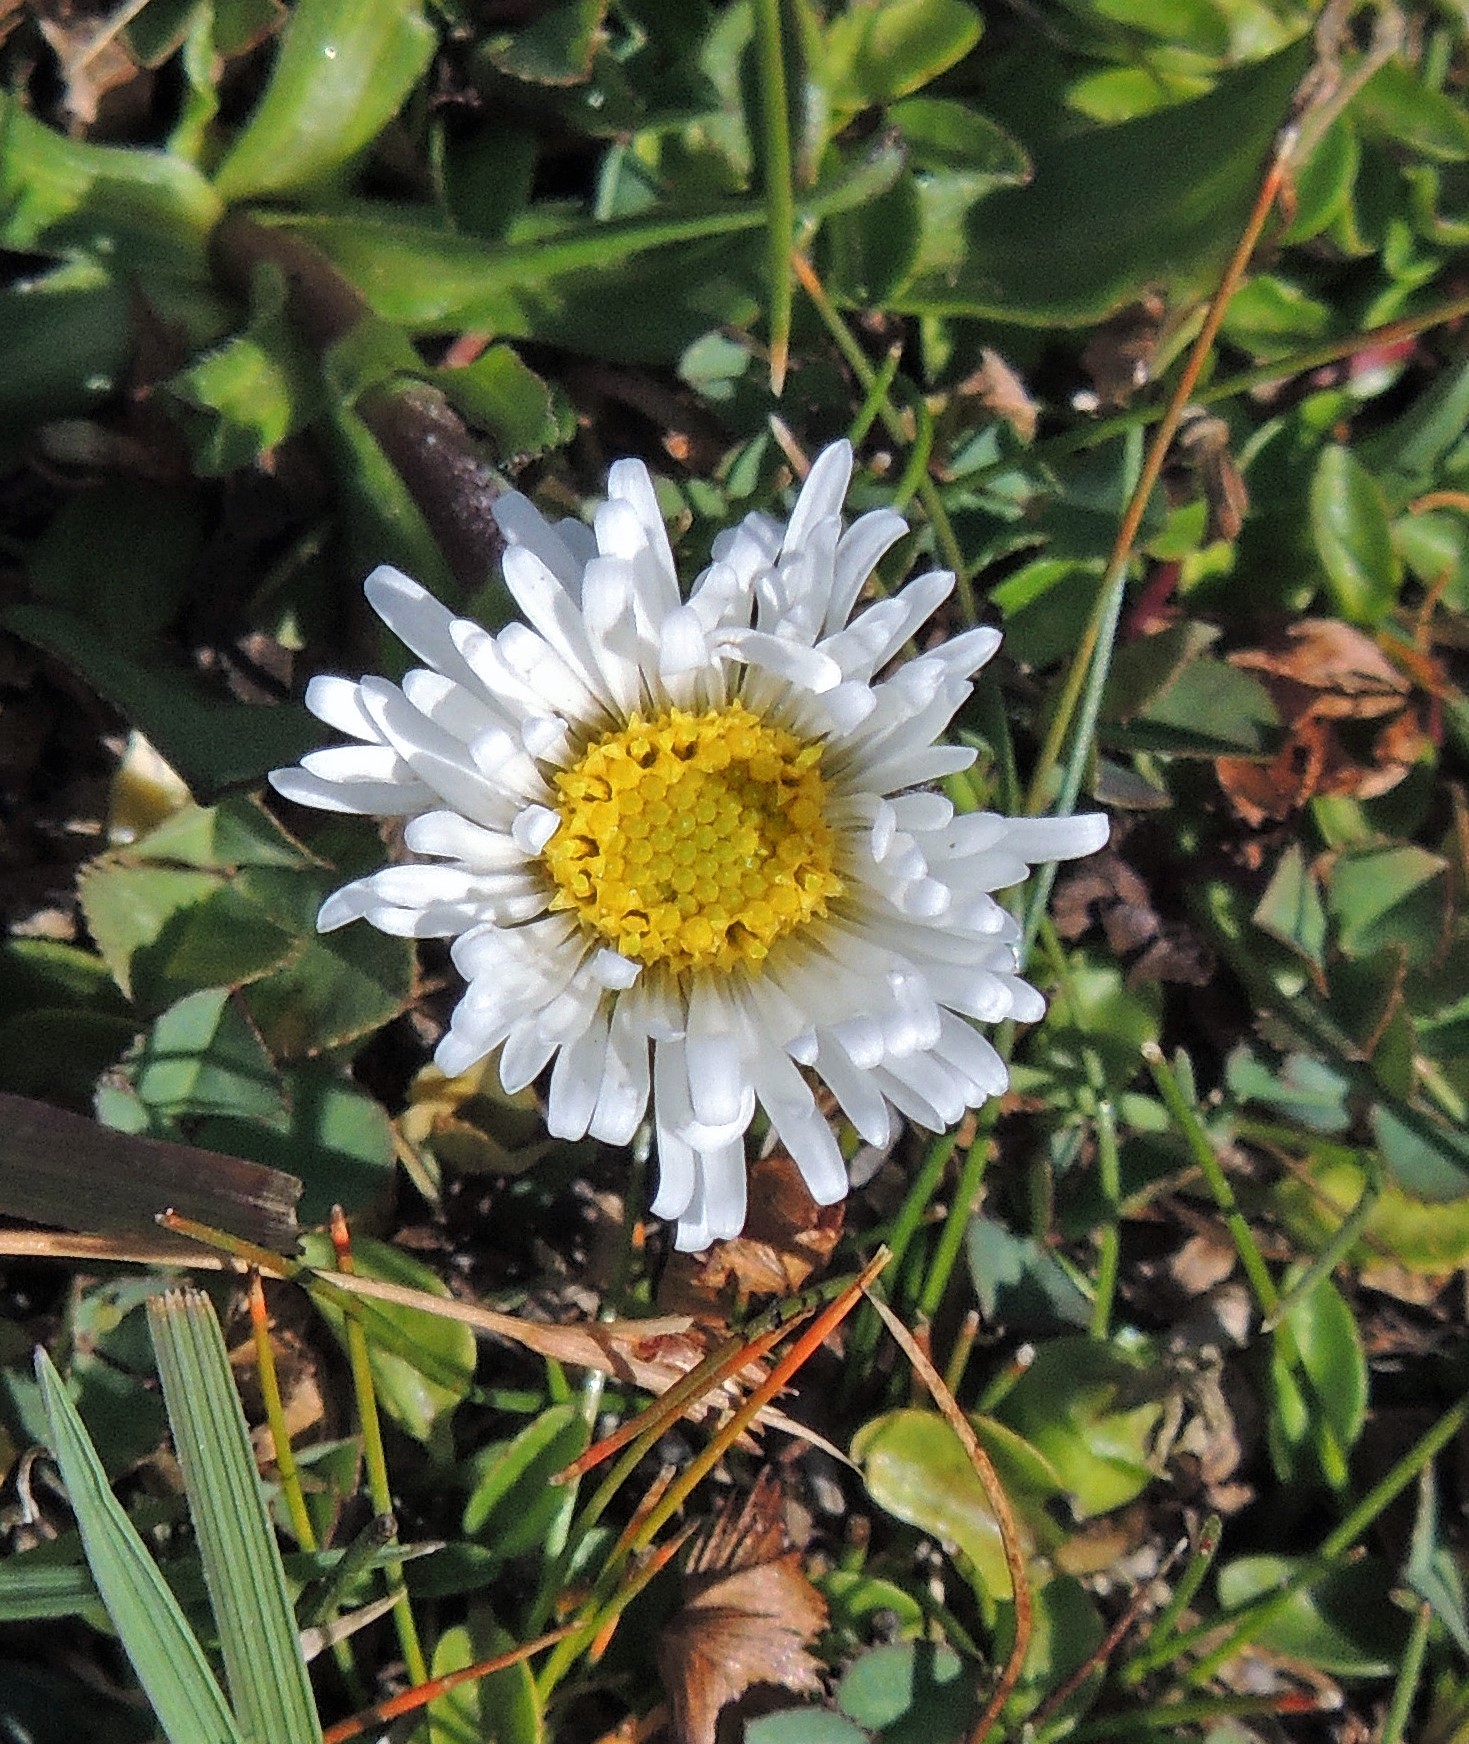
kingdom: Plantae
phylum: Tracheophyta
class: Magnoliopsida
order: Asterales
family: Asteraceae
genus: Symphyotrichum
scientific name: Symphyotrichum glabrifolium
